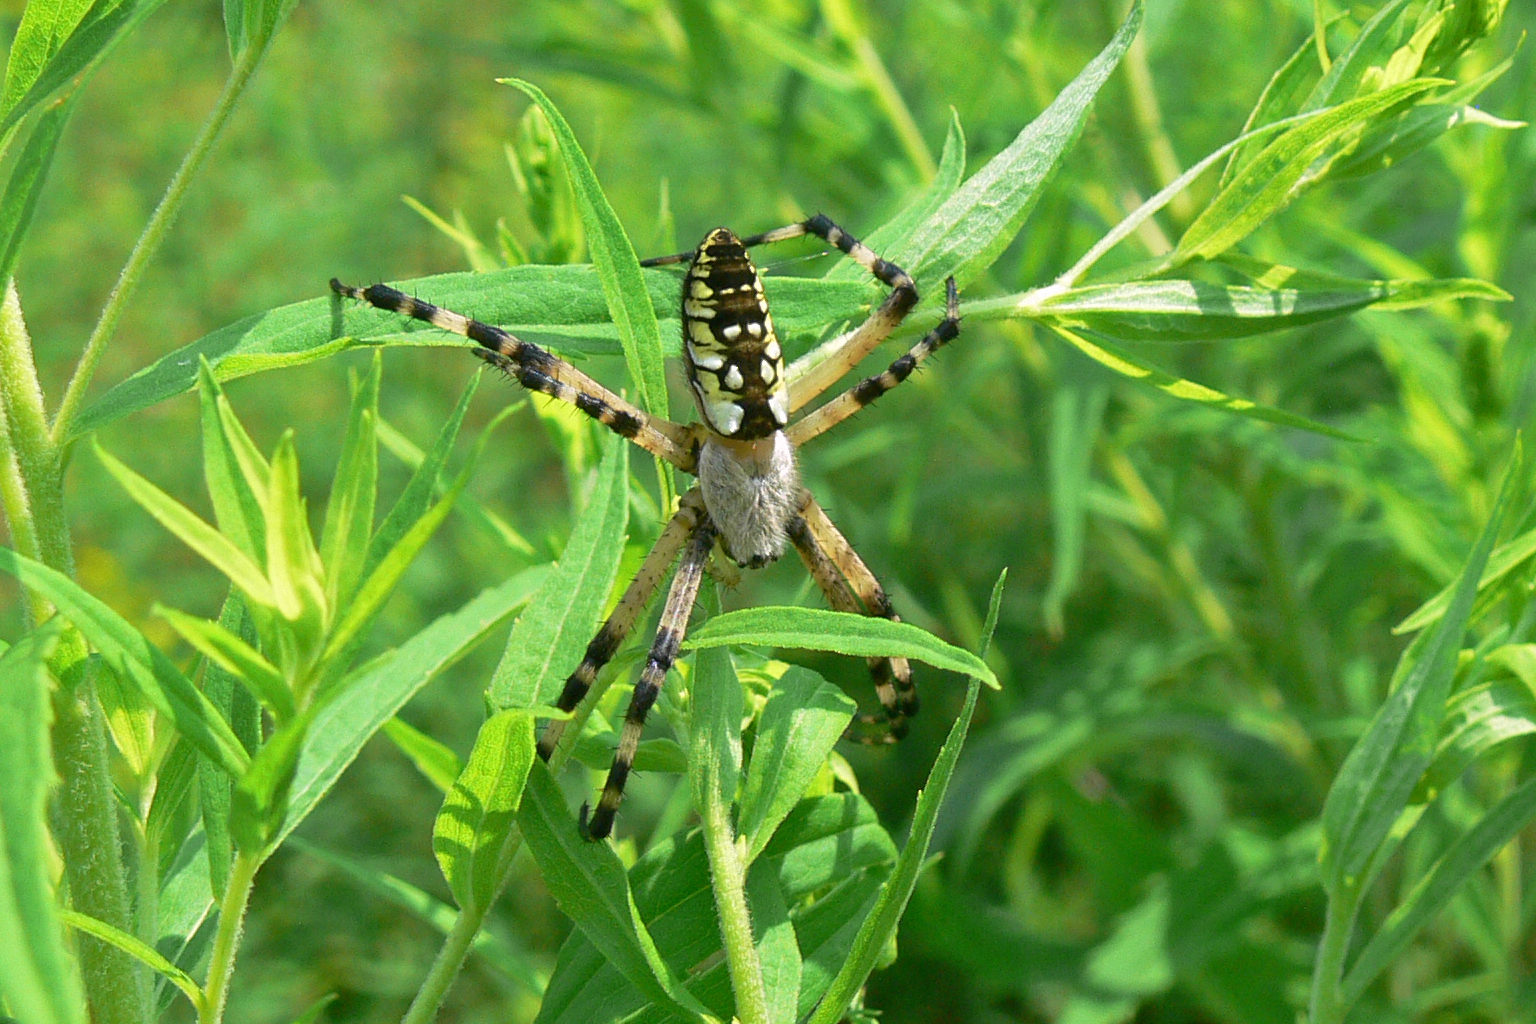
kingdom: Animalia
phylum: Arthropoda
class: Arachnida
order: Araneae
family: Araneidae
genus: Argiope
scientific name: Argiope aurantia
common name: Orb weavers
